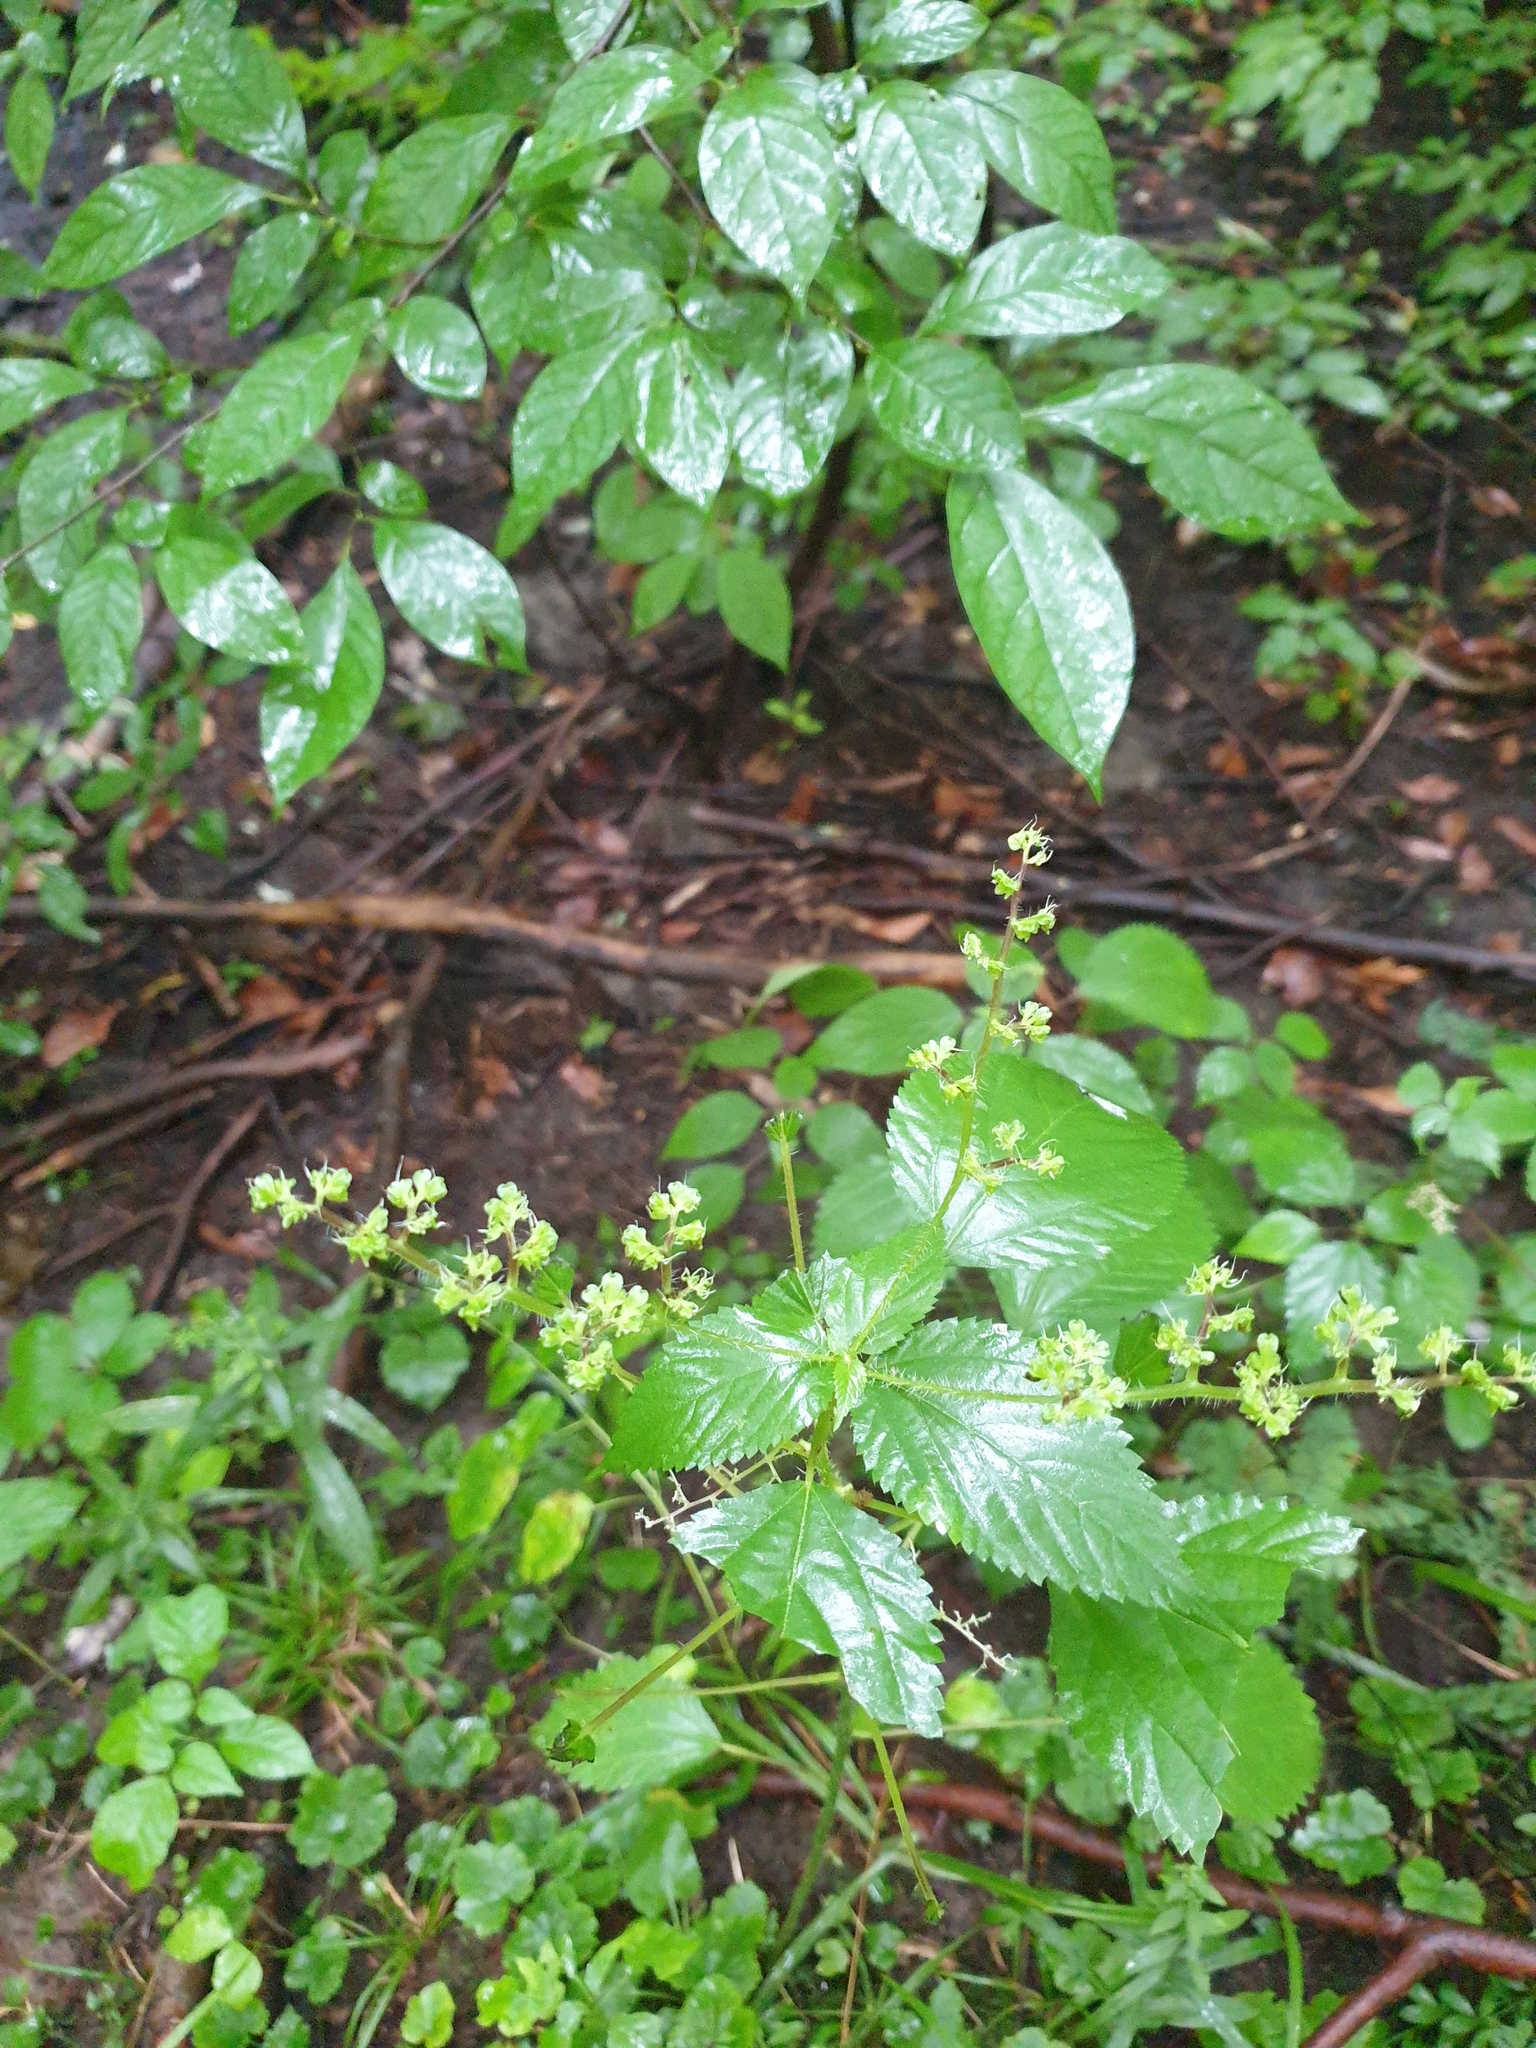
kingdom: Plantae
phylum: Tracheophyta
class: Magnoliopsida
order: Rosales
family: Urticaceae
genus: Laportea
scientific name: Laportea canadensis
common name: Canada nettle
